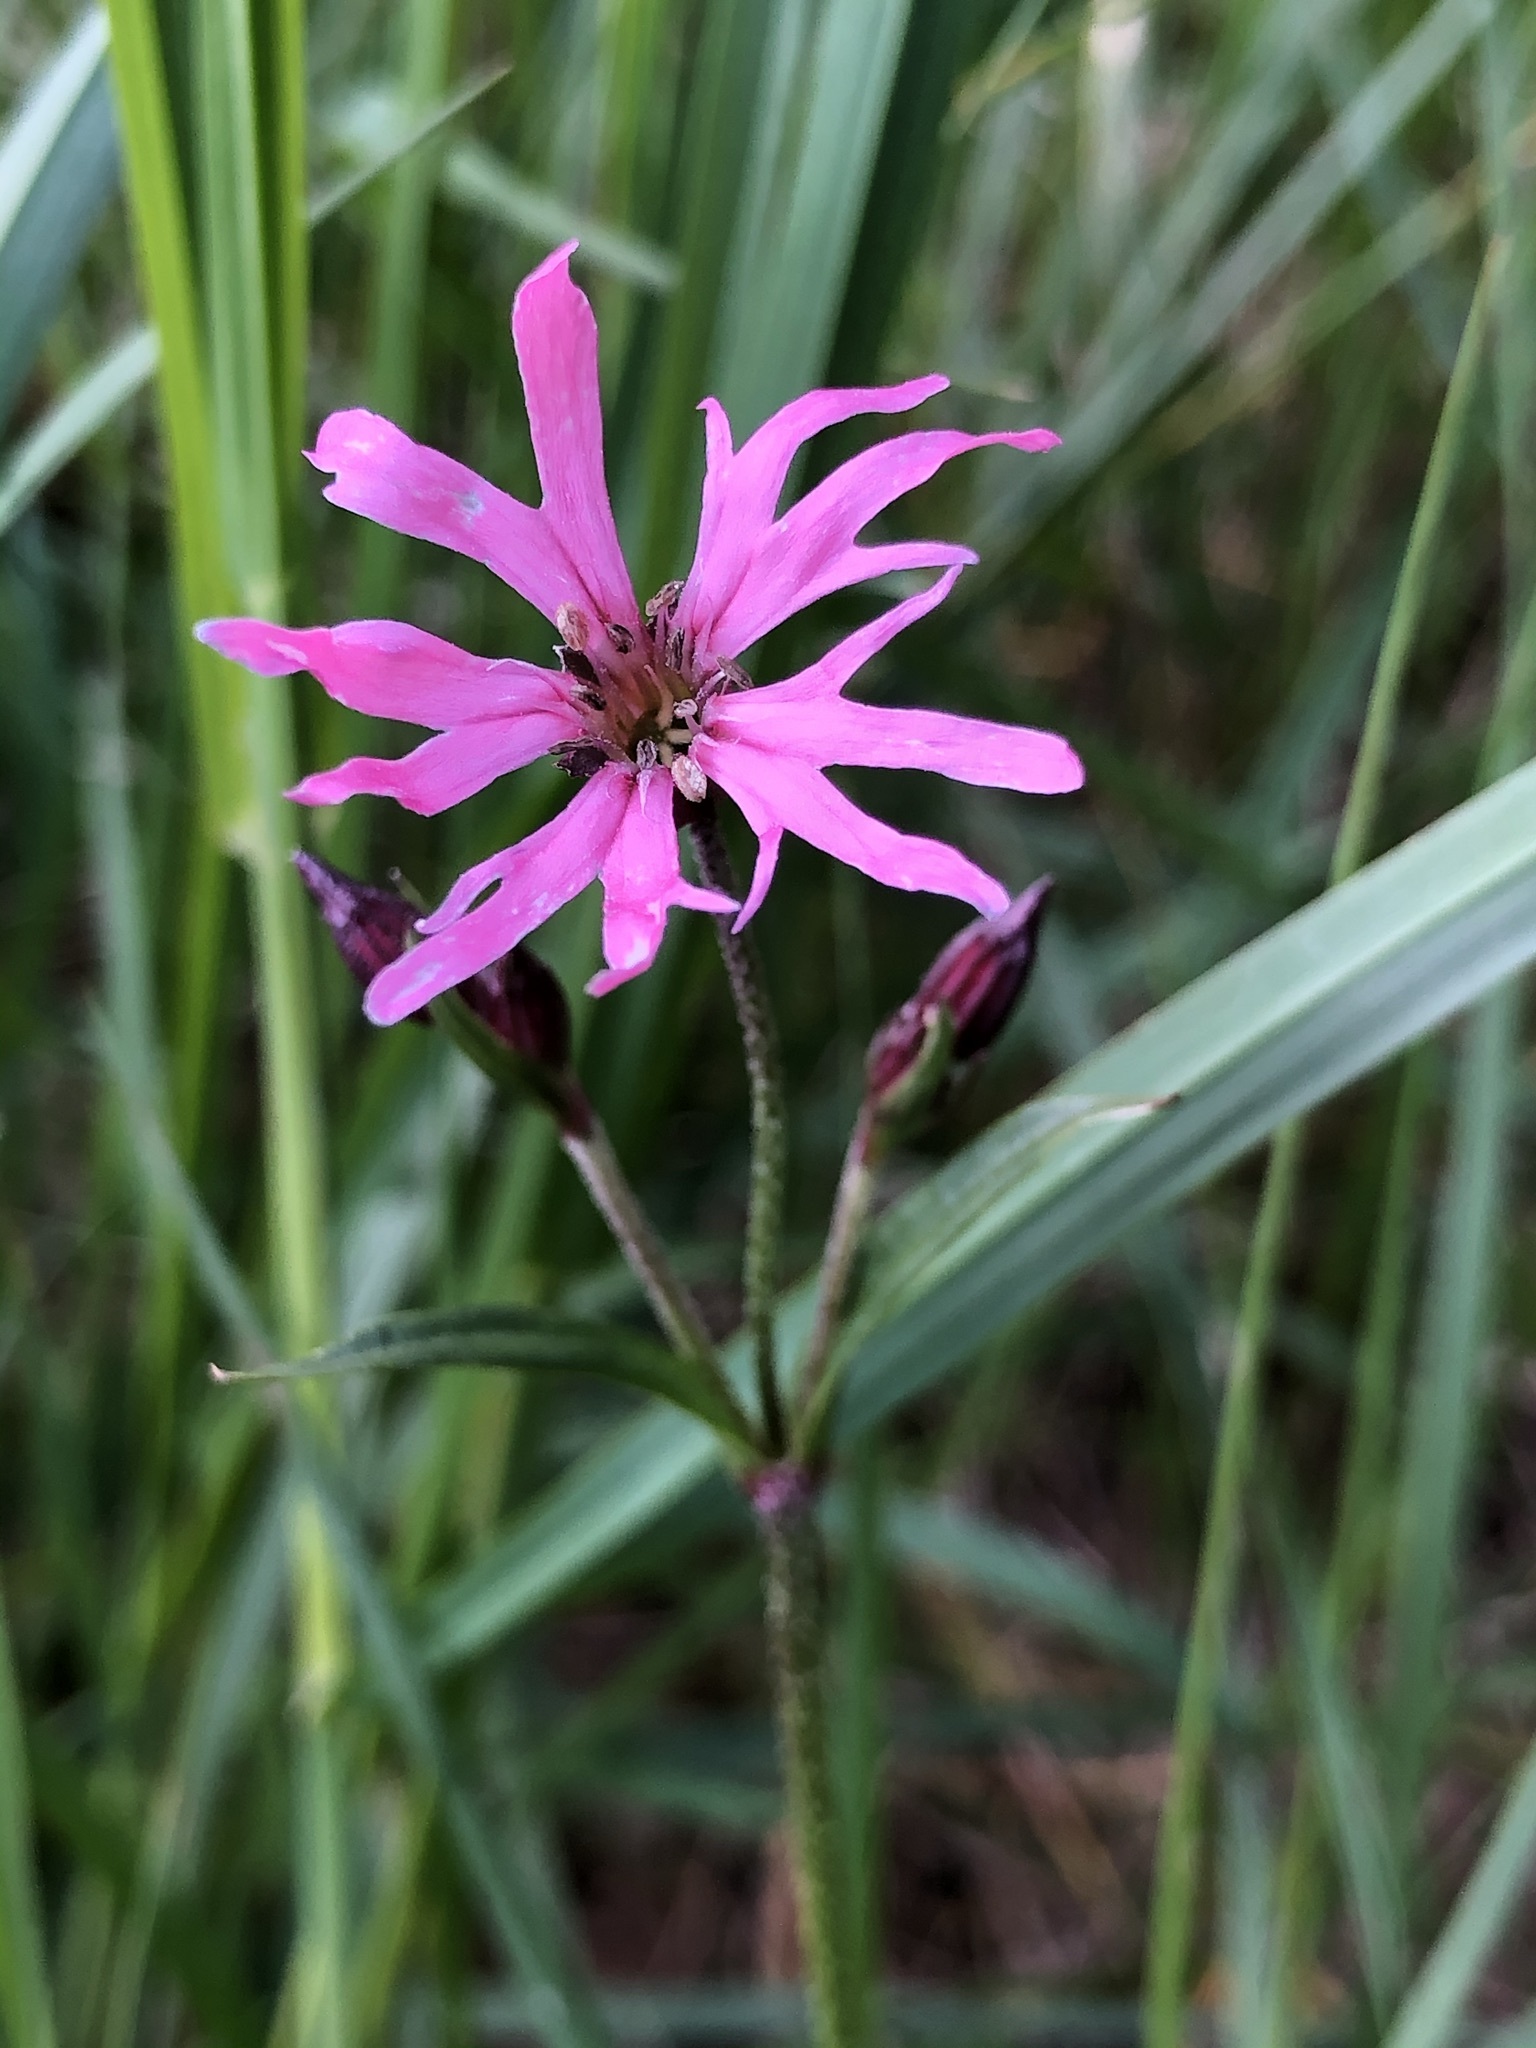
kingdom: Plantae
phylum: Tracheophyta
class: Magnoliopsida
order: Caryophyllales
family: Caryophyllaceae
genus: Silene
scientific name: Silene flos-cuculi
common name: Ragged-robin
